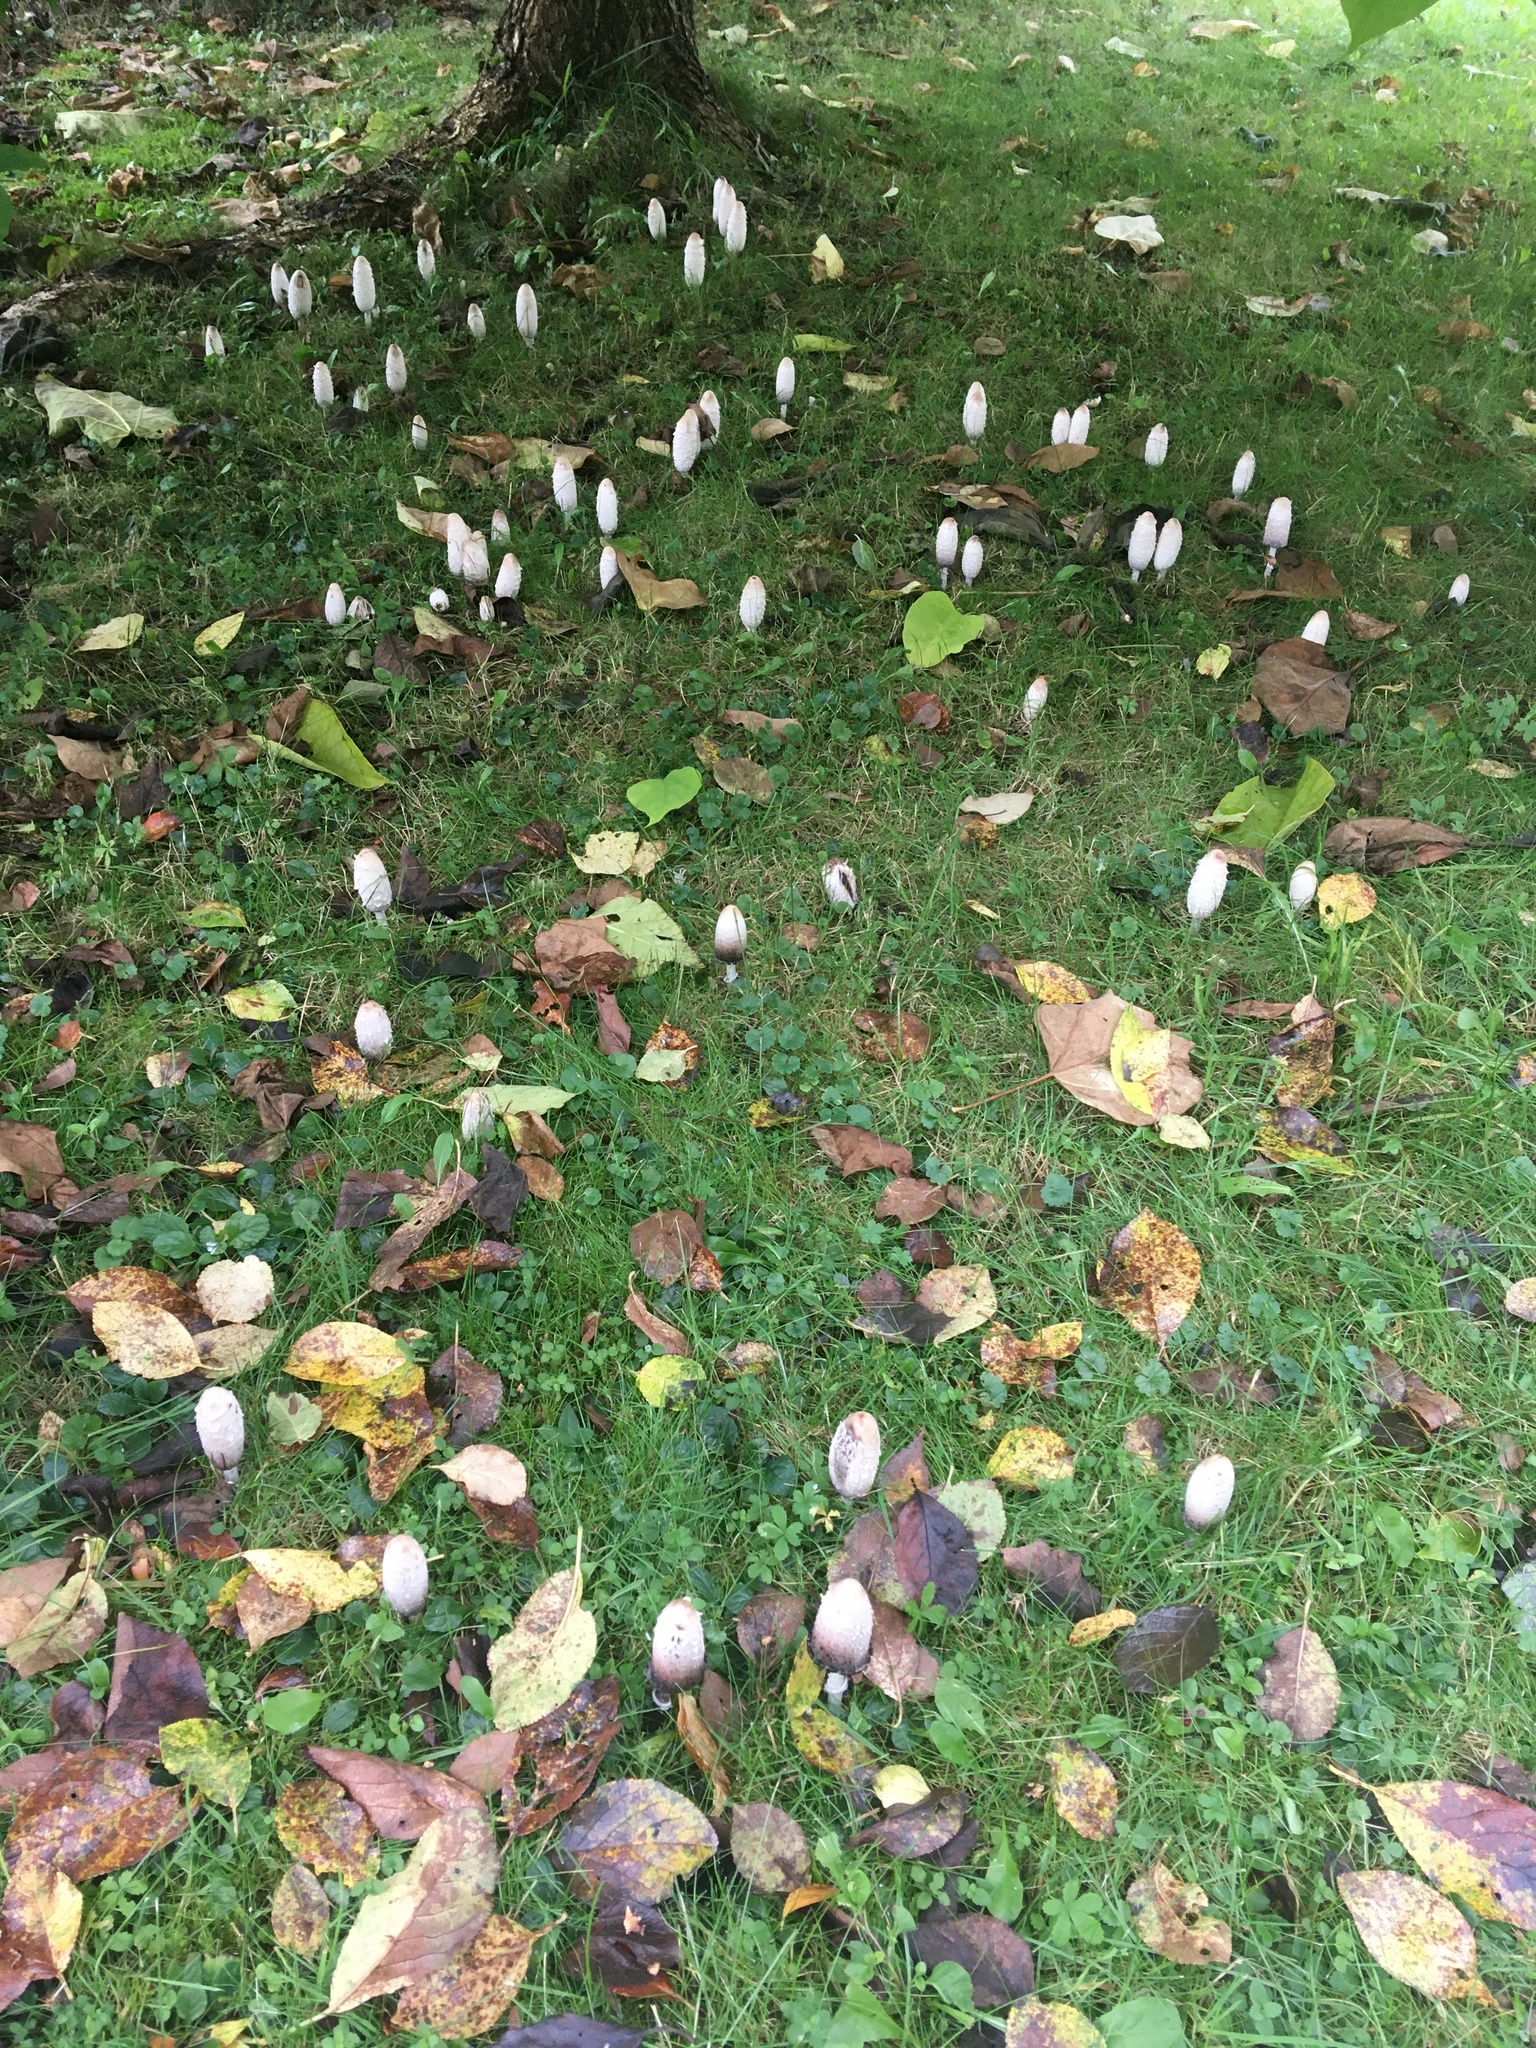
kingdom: Fungi
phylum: Basidiomycota
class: Agaricomycetes
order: Agaricales
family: Agaricaceae
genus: Coprinus
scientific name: Coprinus comatus
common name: Lawyer's wig
